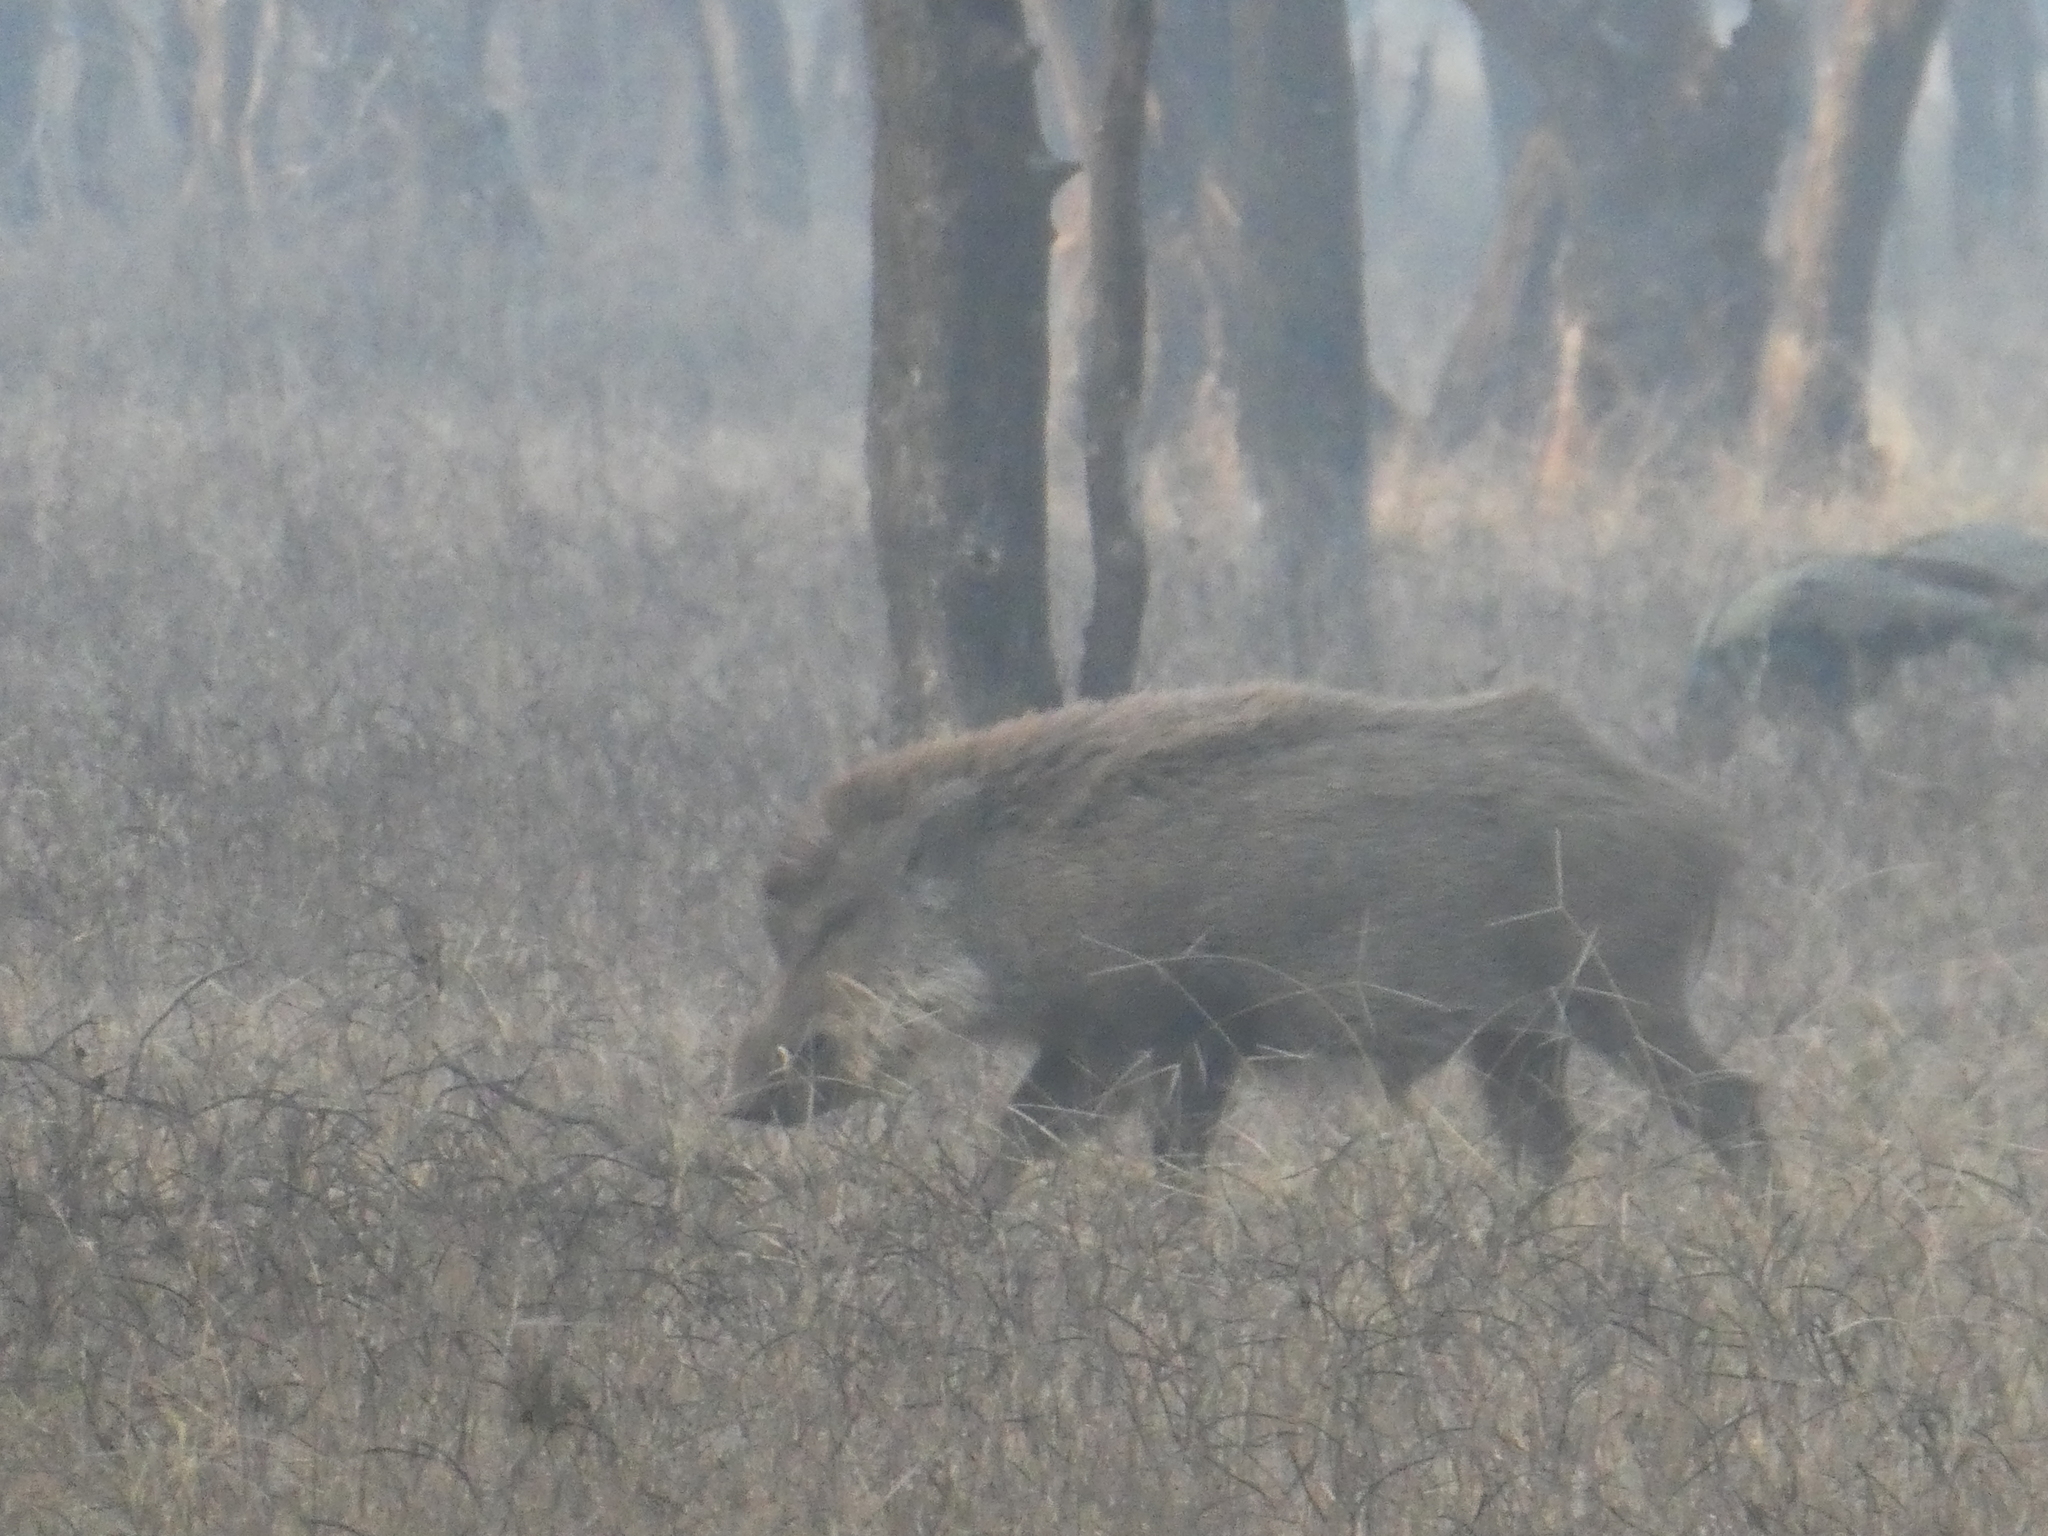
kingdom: Animalia
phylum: Chordata
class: Mammalia
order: Artiodactyla
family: Suidae
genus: Sus
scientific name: Sus scrofa
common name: Wild boar
